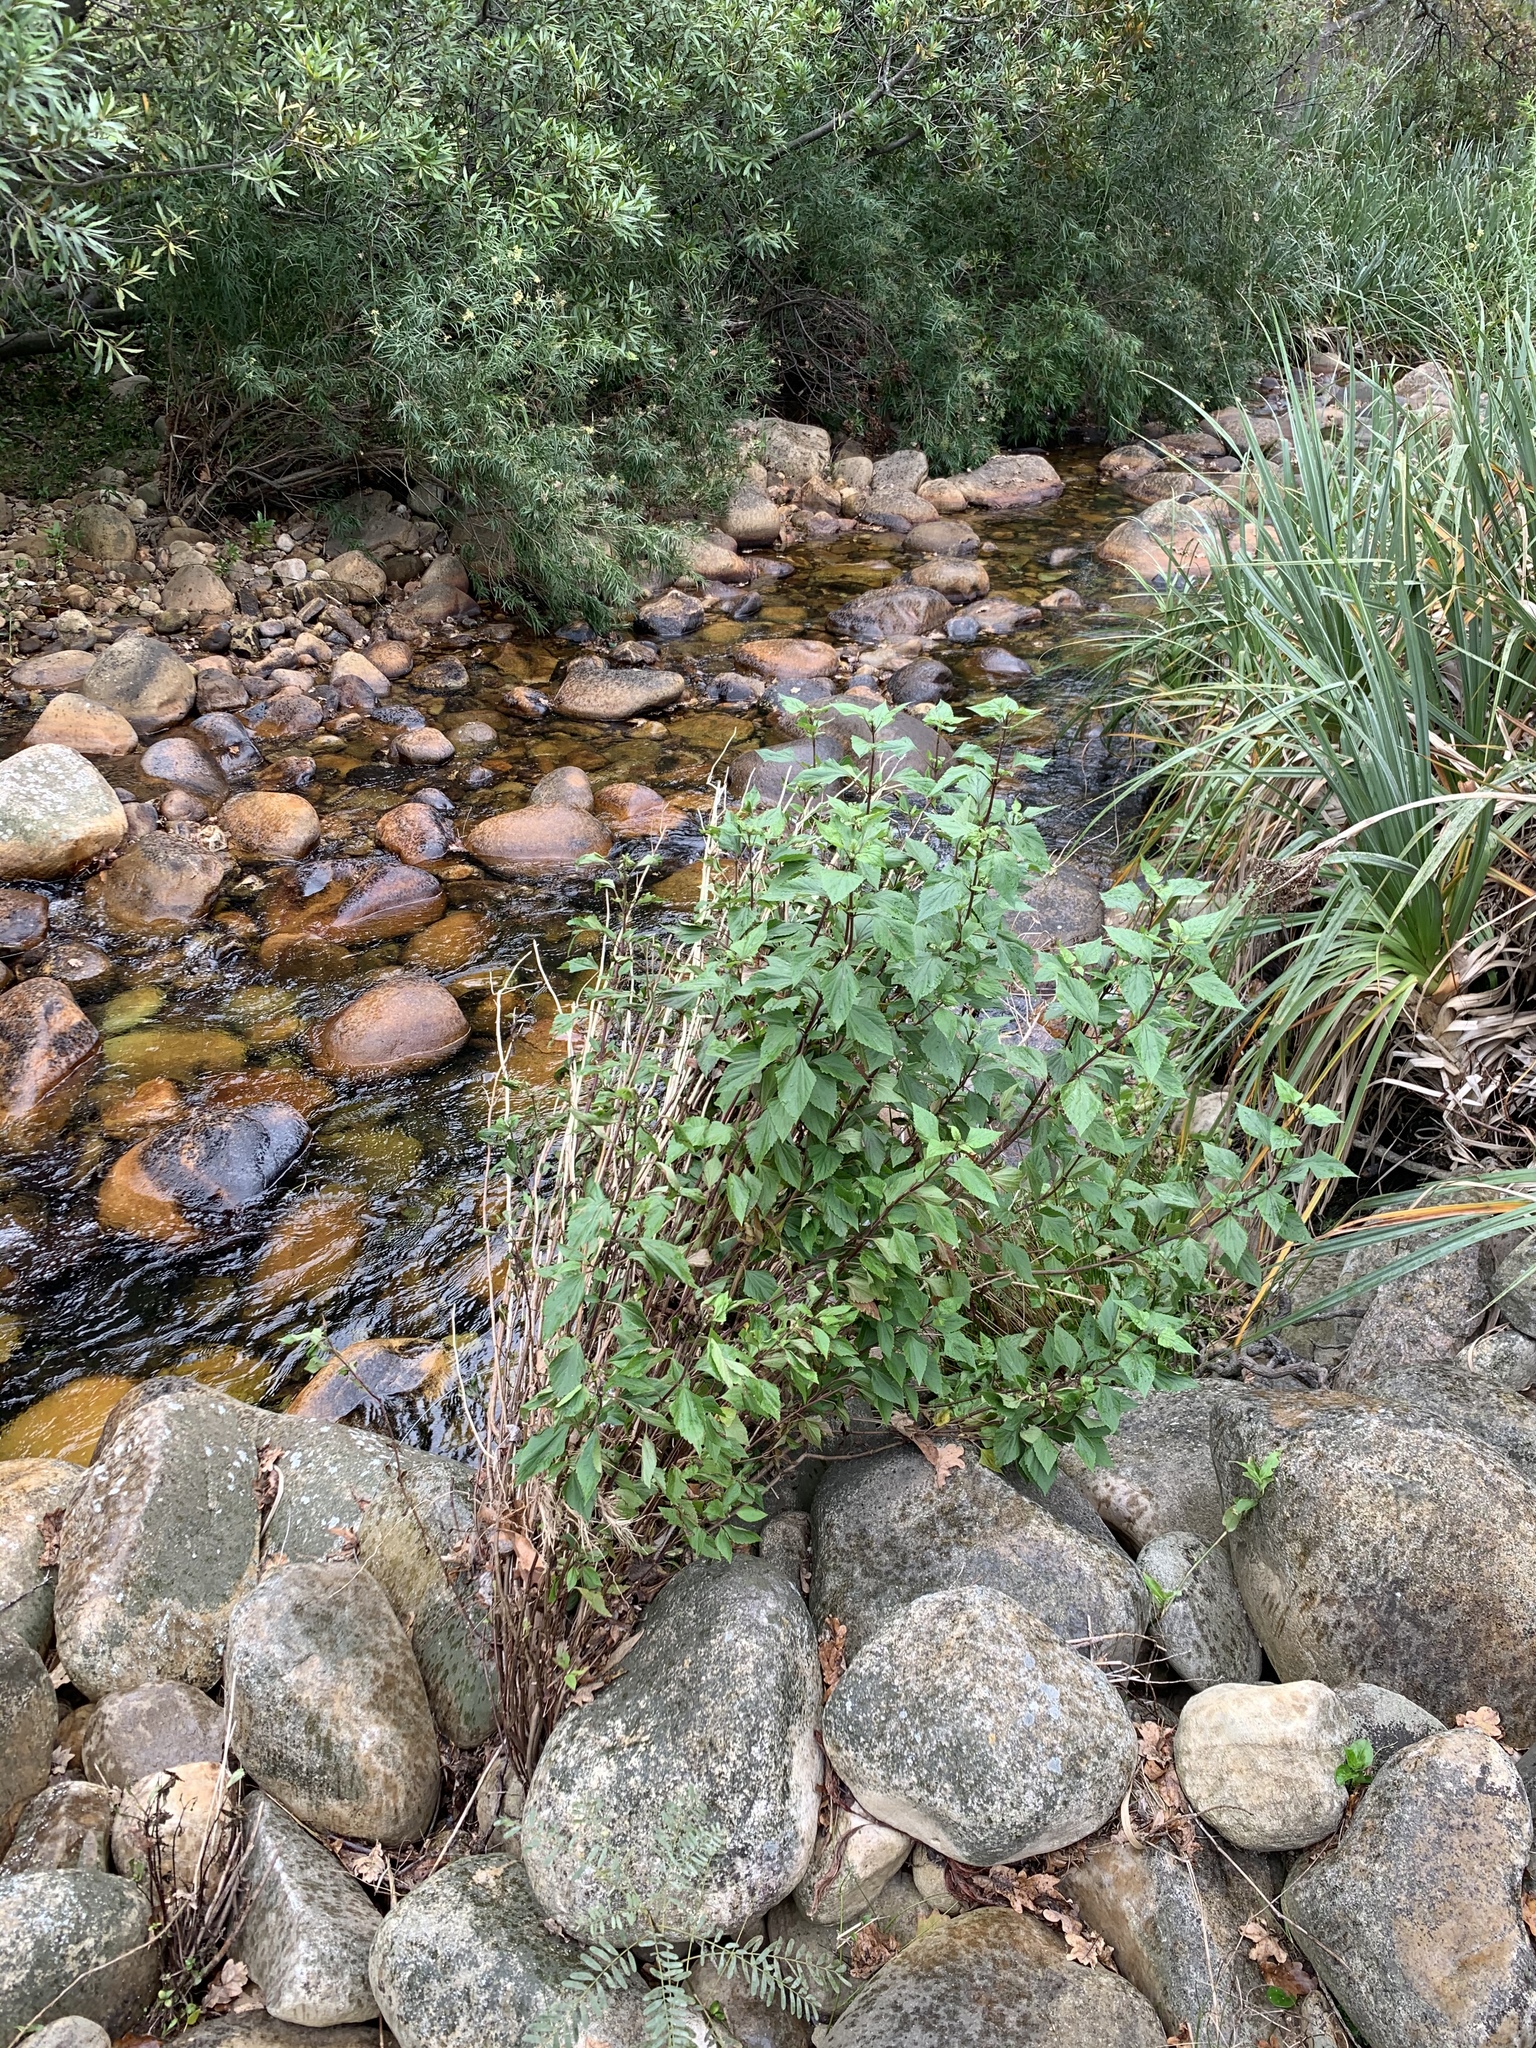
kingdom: Plantae
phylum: Tracheophyta
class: Magnoliopsida
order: Asterales
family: Asteraceae
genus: Ageratina
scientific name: Ageratina adenophora
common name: Sticky snakeroot
